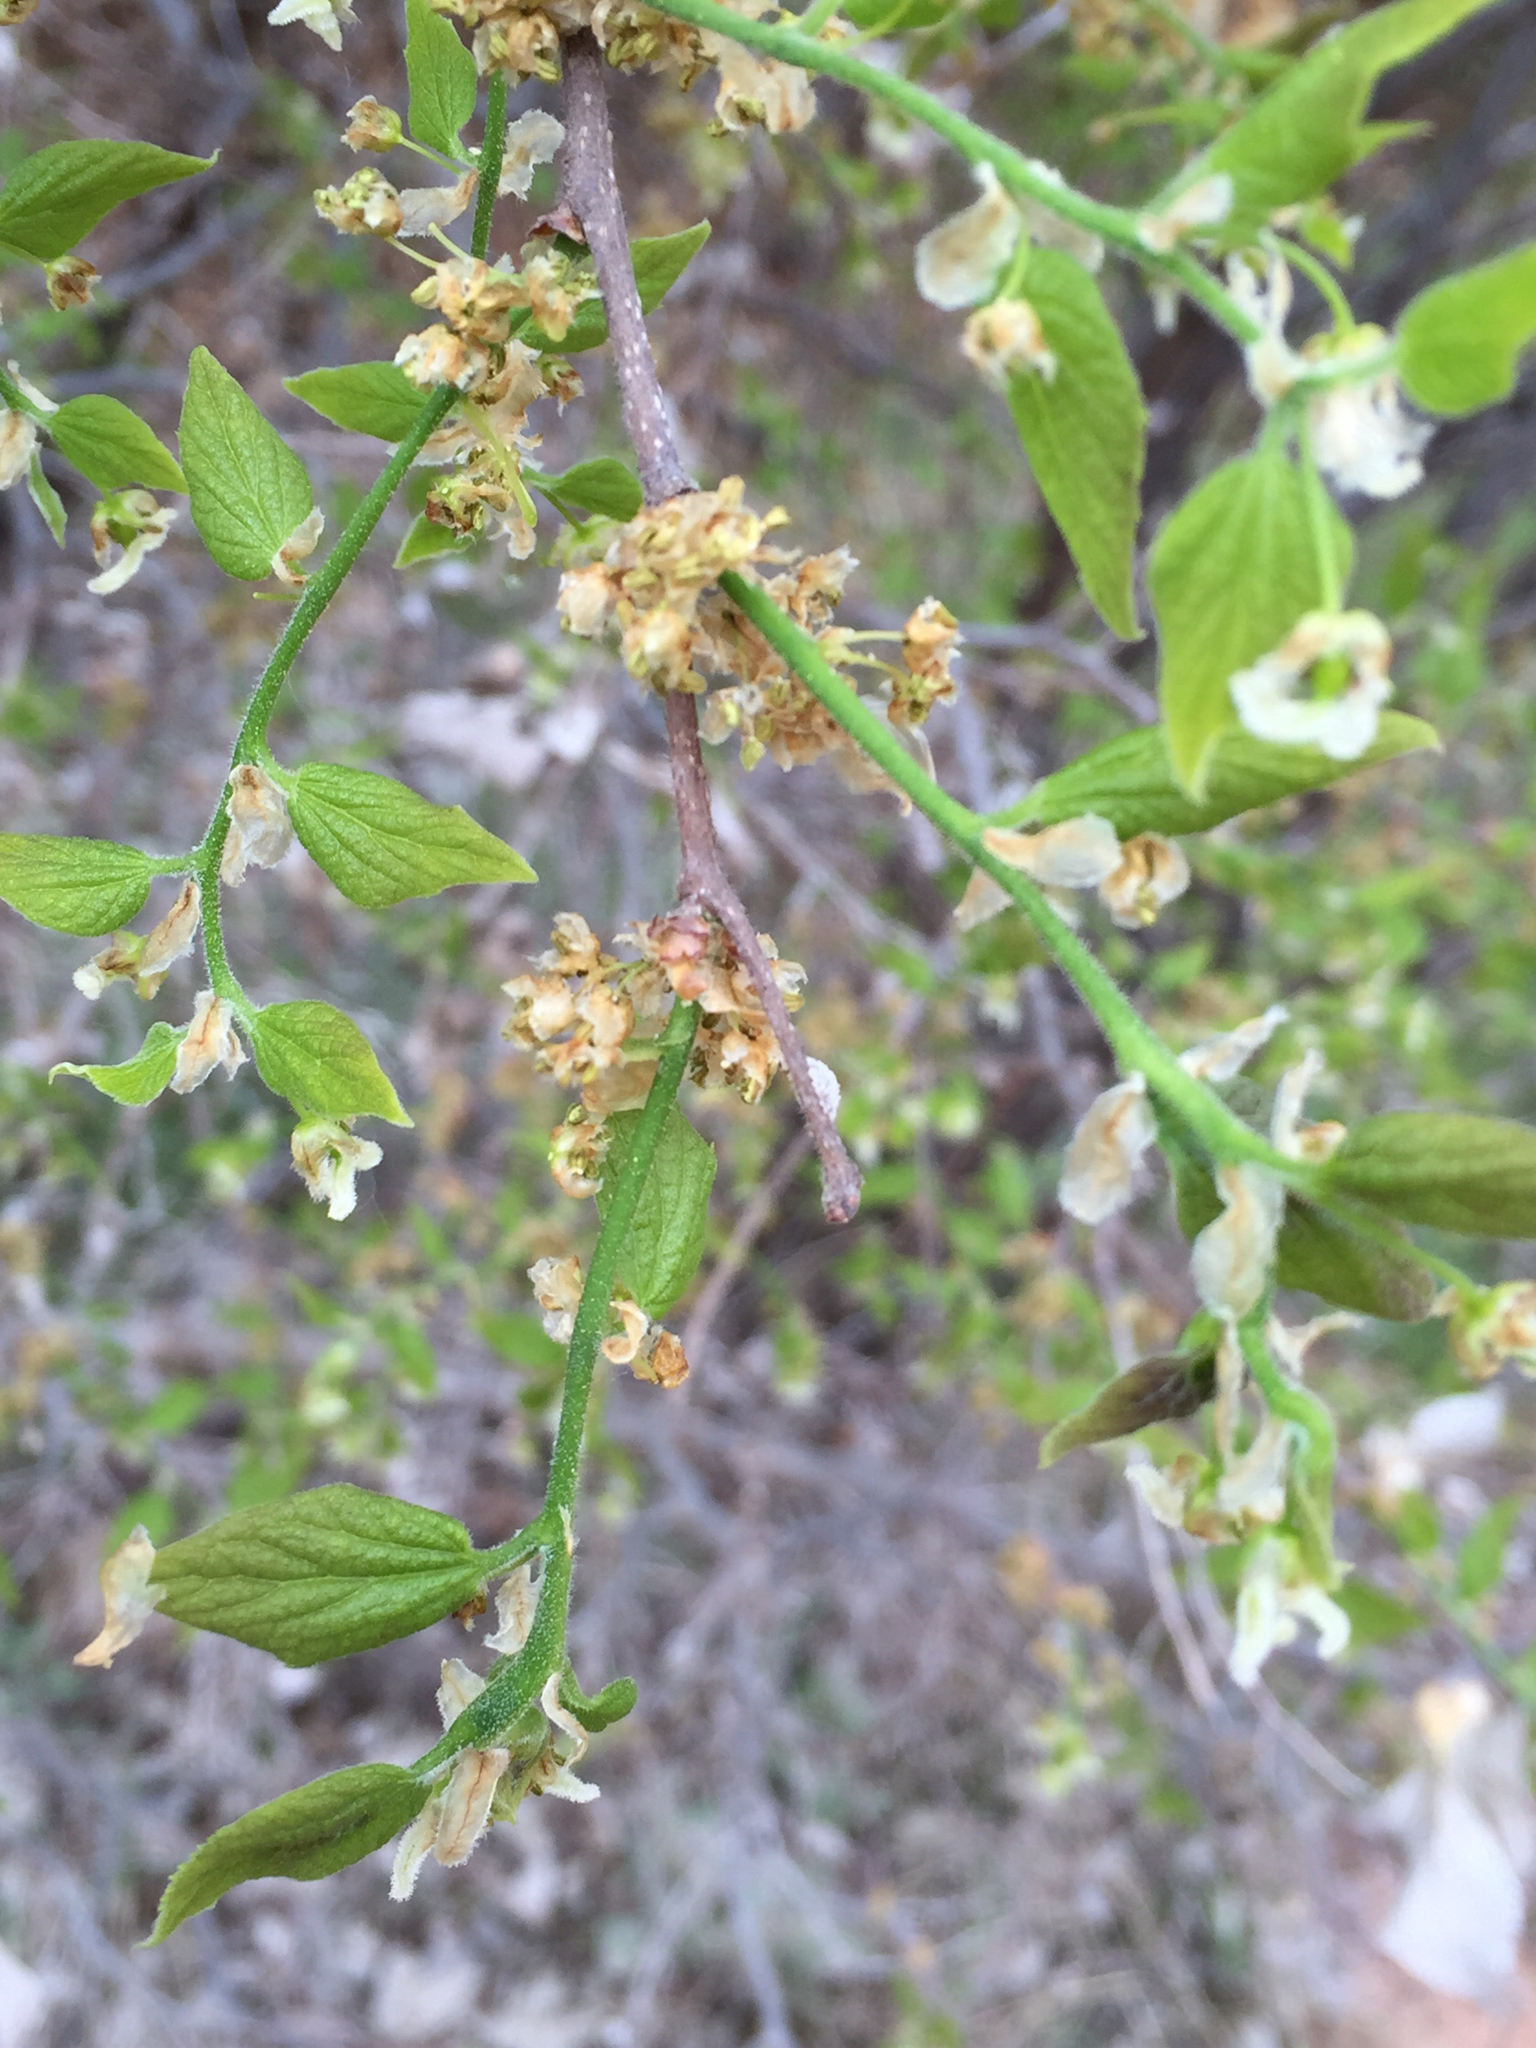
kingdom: Plantae
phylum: Tracheophyta
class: Magnoliopsida
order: Rosales
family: Cannabaceae
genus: Celtis
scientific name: Celtis reticulata
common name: Netleaf hackberry
